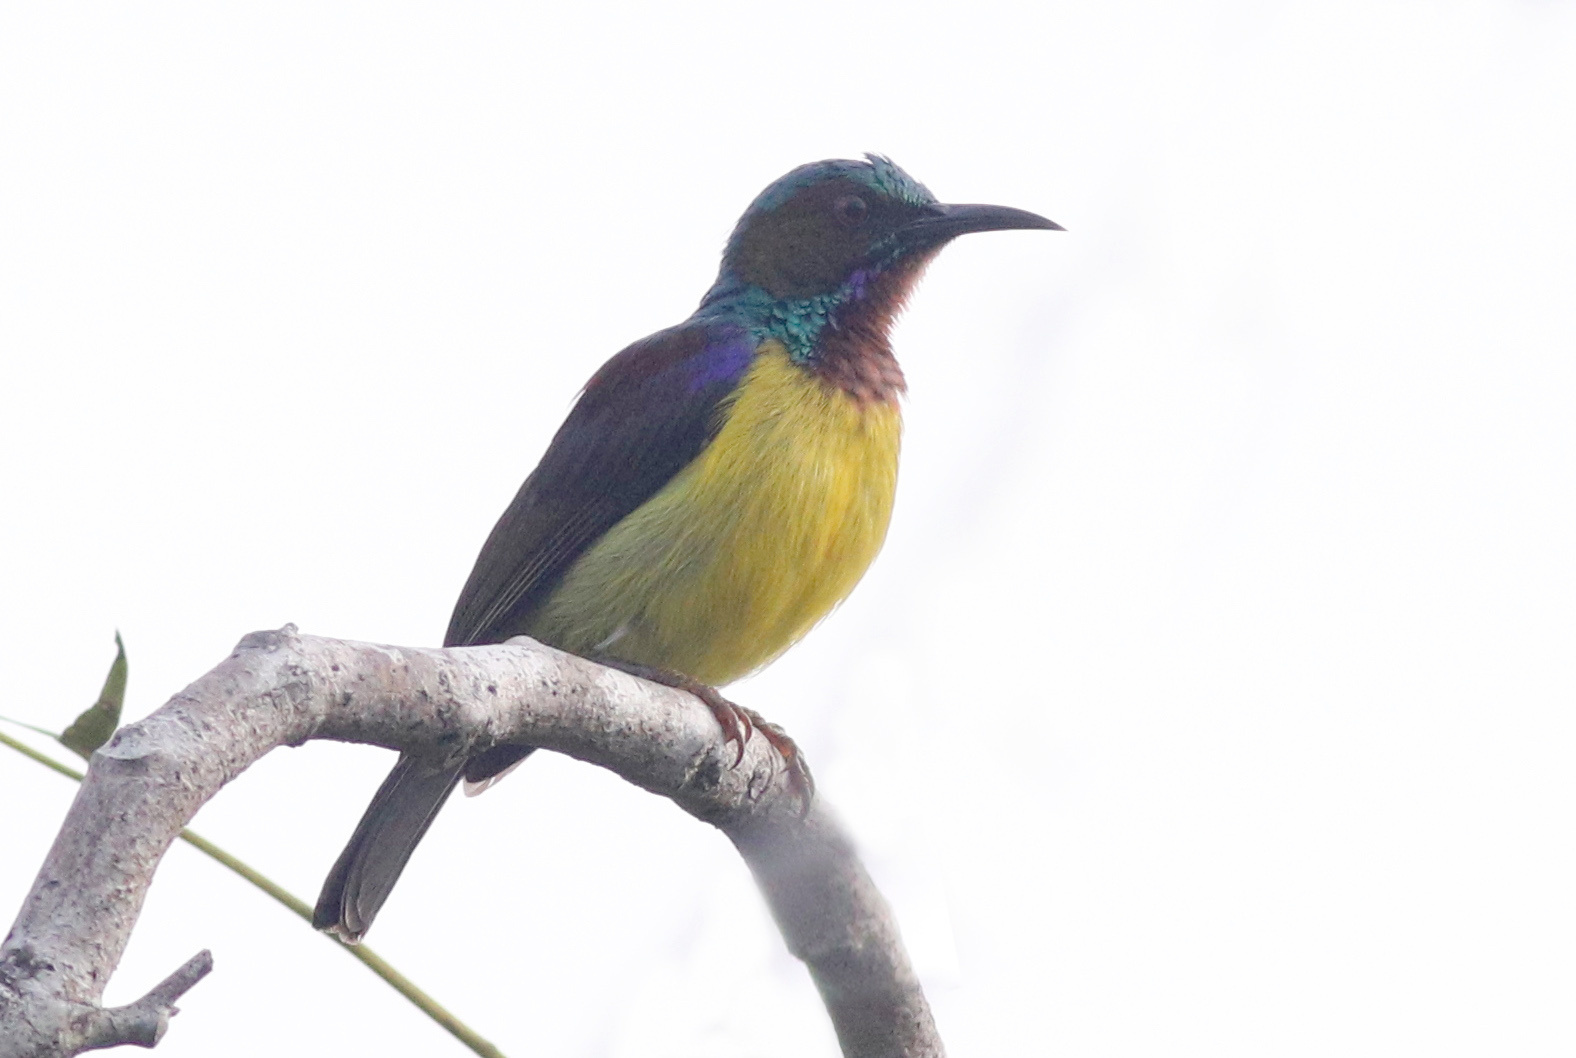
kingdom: Animalia
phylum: Chordata
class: Aves
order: Passeriformes
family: Nectariniidae
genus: Anthreptes
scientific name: Anthreptes malacensis
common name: Brown-throated sunbird
